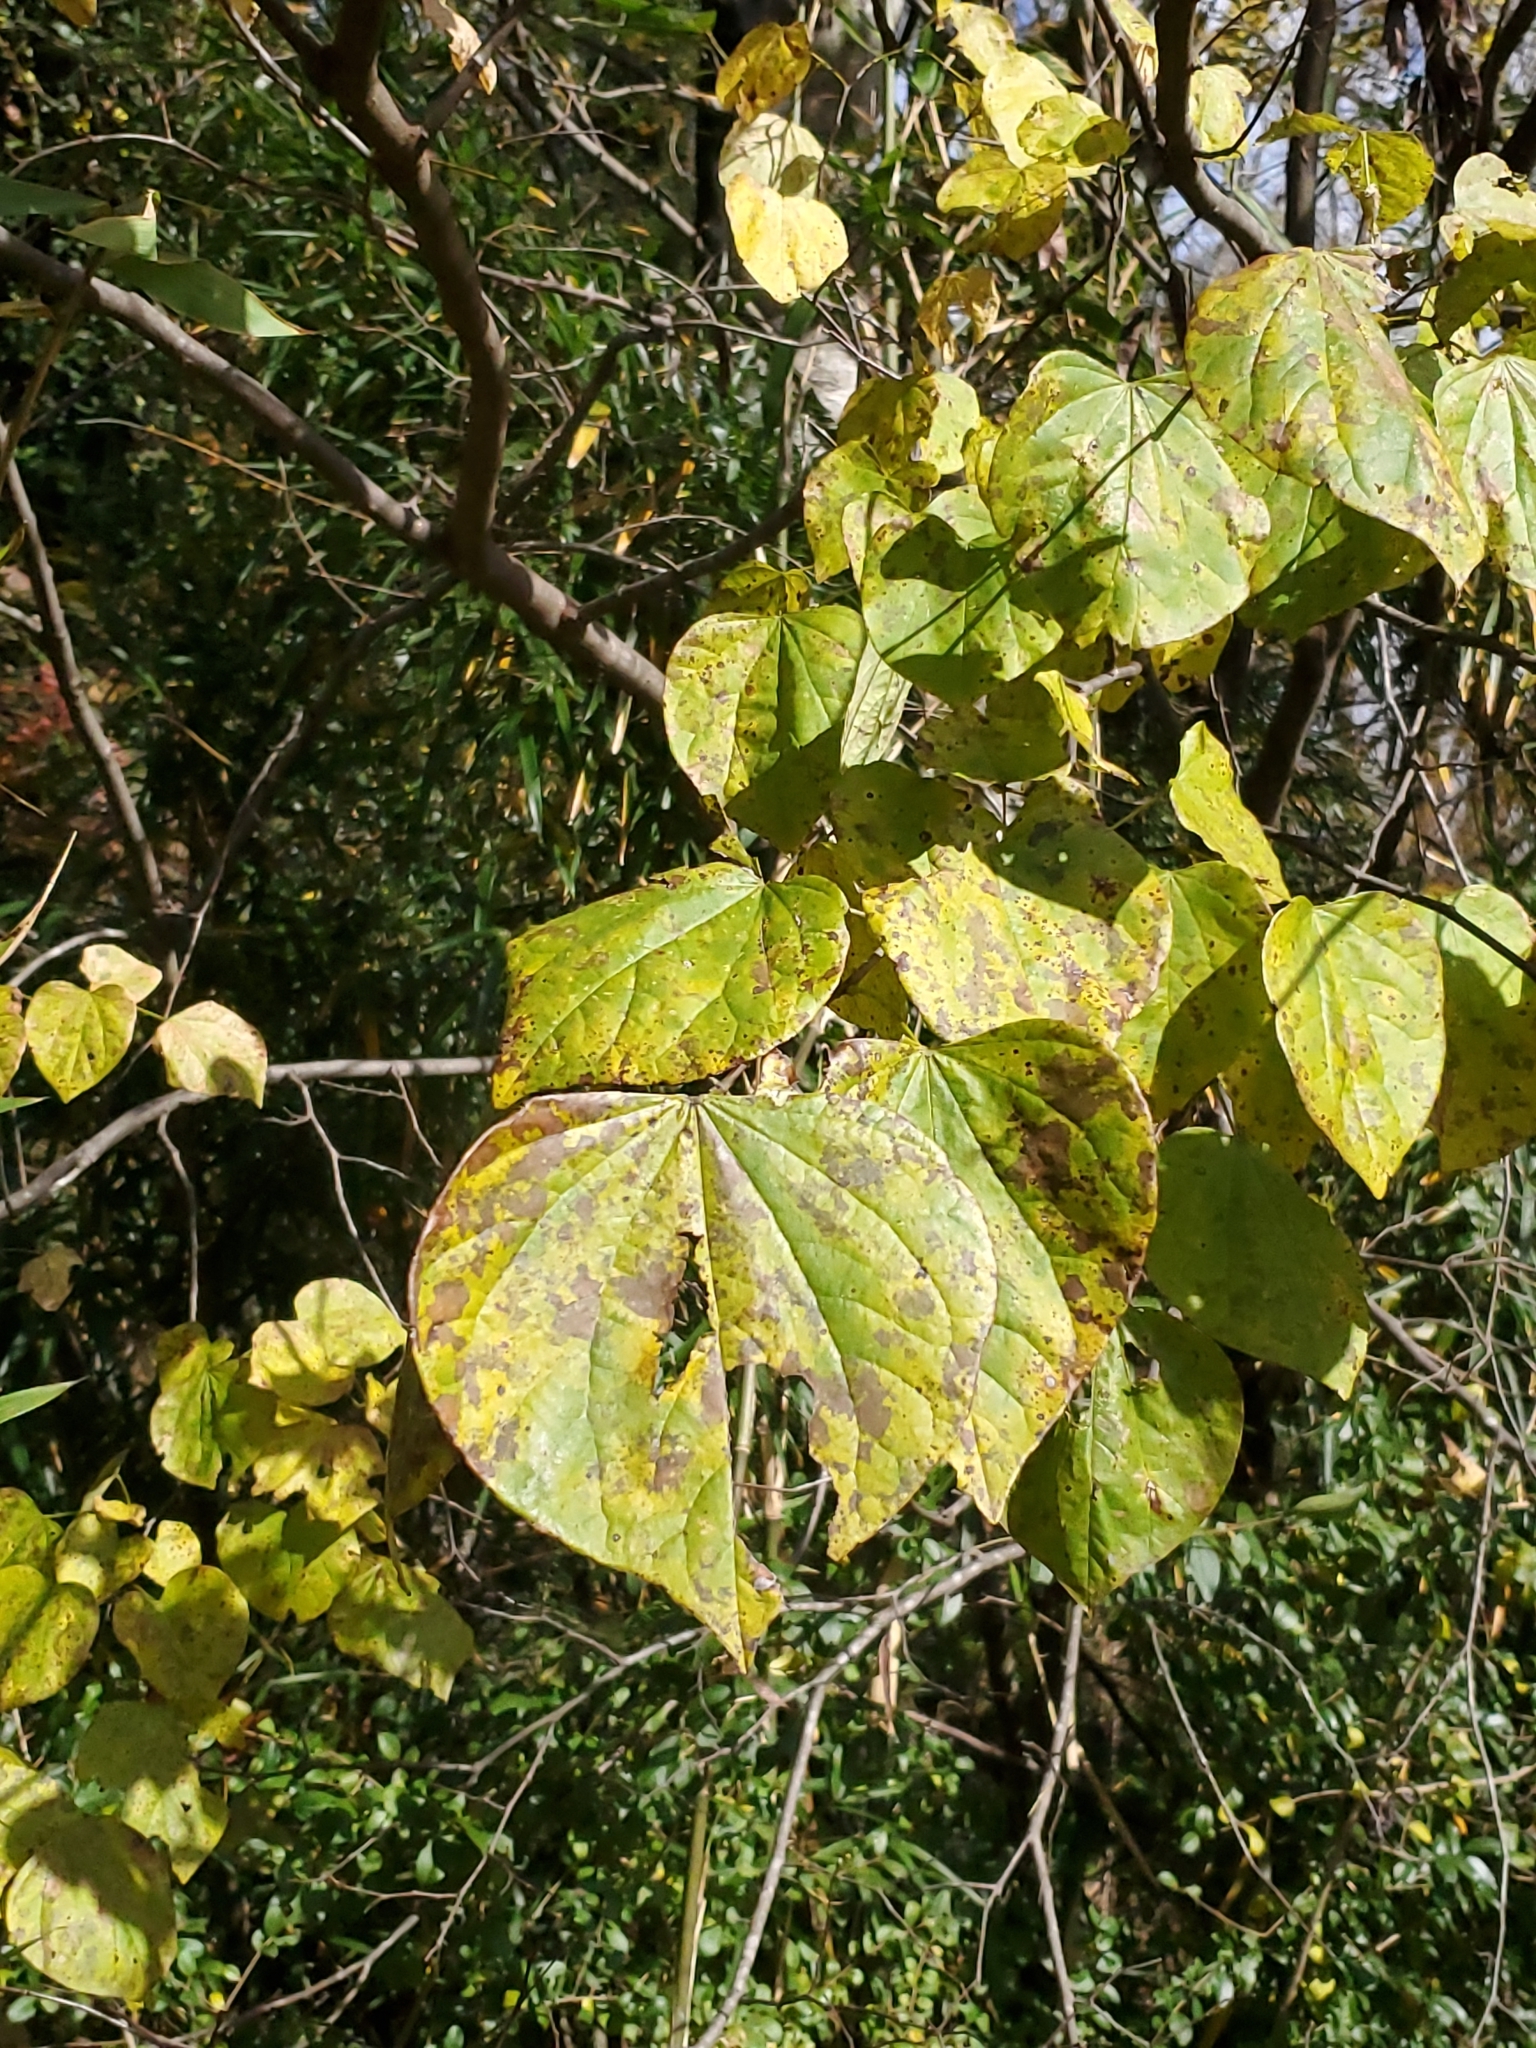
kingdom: Plantae
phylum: Tracheophyta
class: Magnoliopsida
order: Fabales
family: Fabaceae
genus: Cercis
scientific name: Cercis canadensis
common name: Eastern redbud
